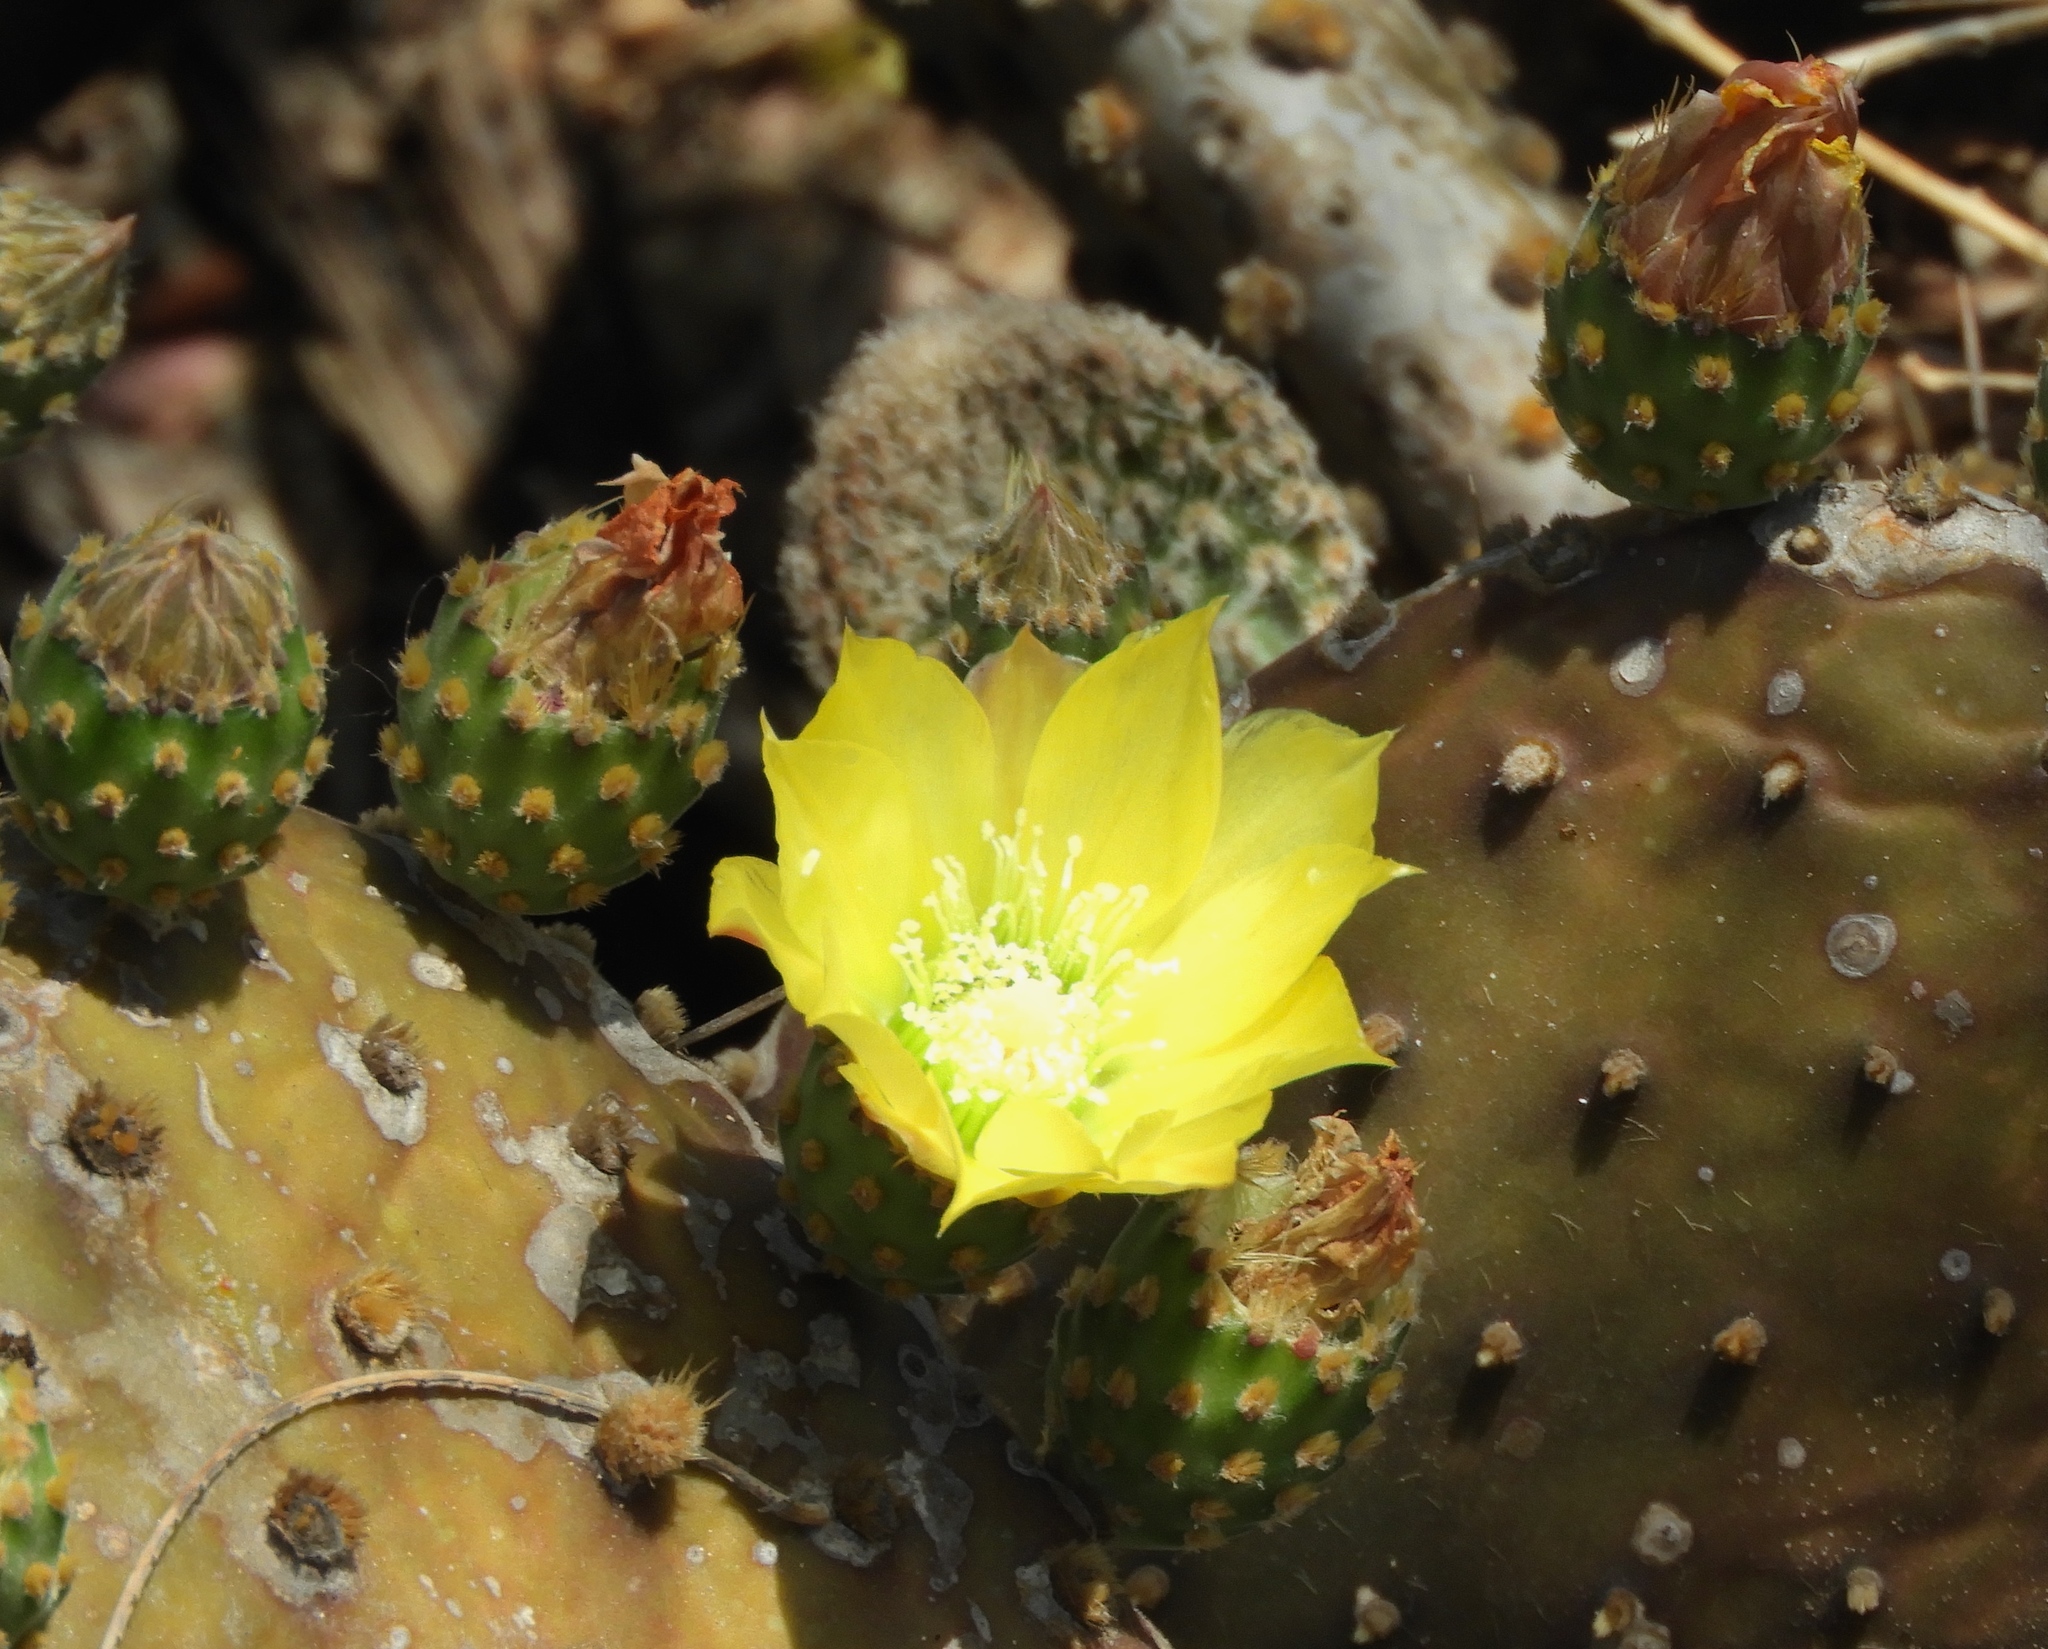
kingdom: Plantae
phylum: Tracheophyta
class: Magnoliopsida
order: Caryophyllales
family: Cactaceae
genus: Opuntia
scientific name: Opuntia decumbens
